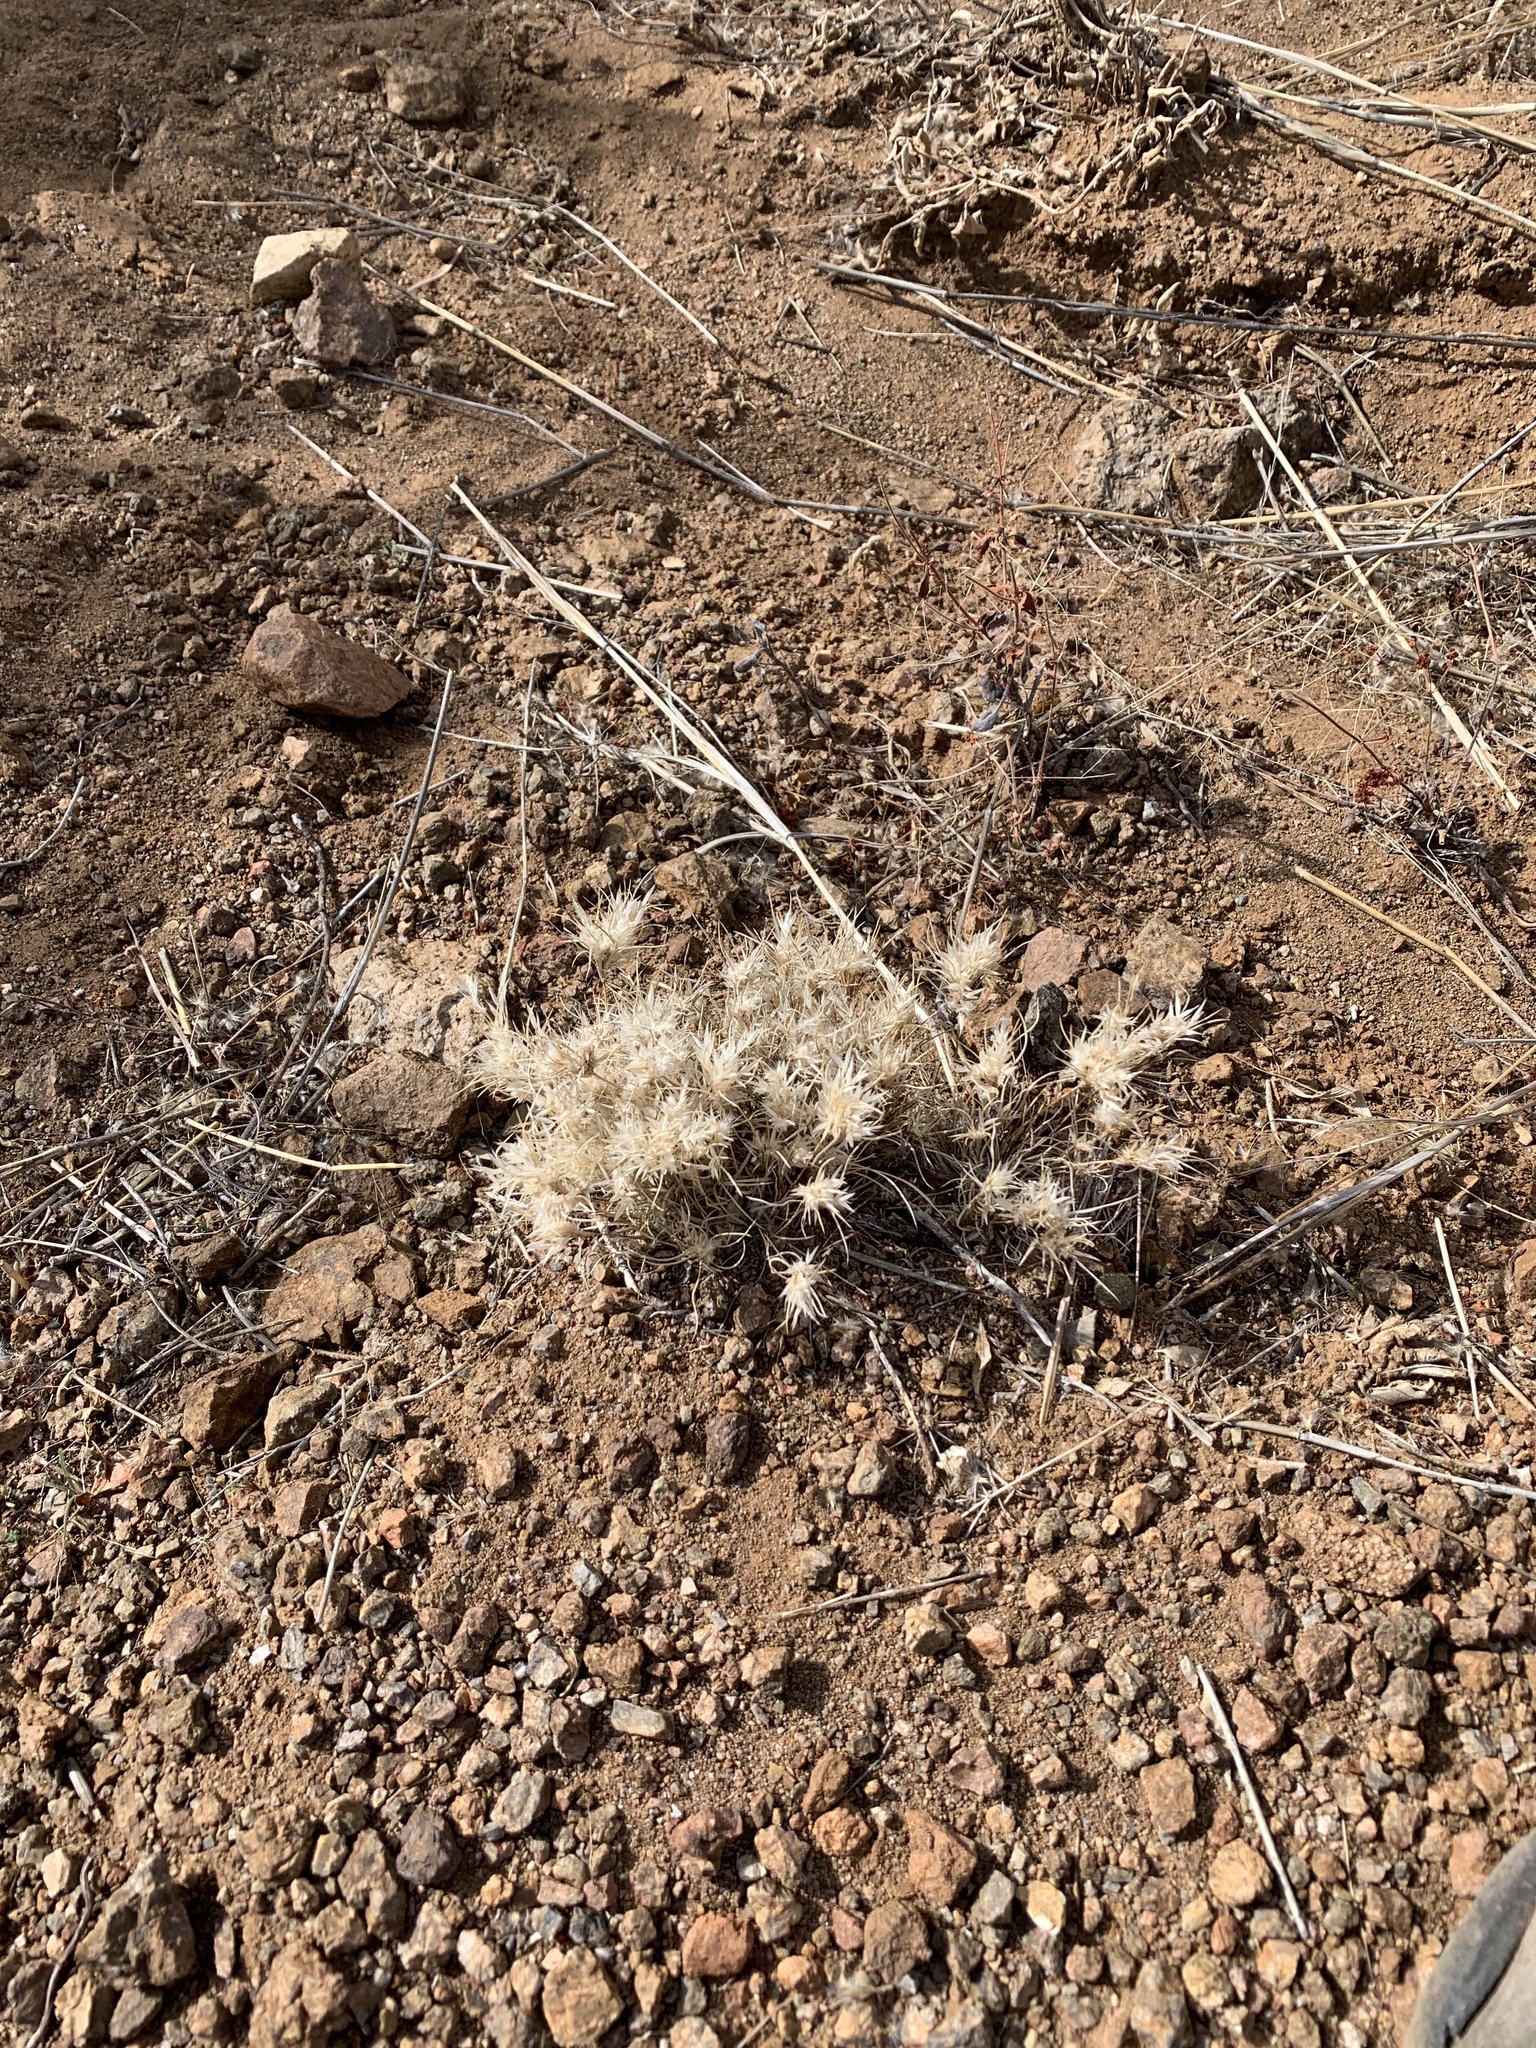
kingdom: Plantae
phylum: Tracheophyta
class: Liliopsida
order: Poales
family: Poaceae
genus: Dasyochloa
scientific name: Dasyochloa pulchella
